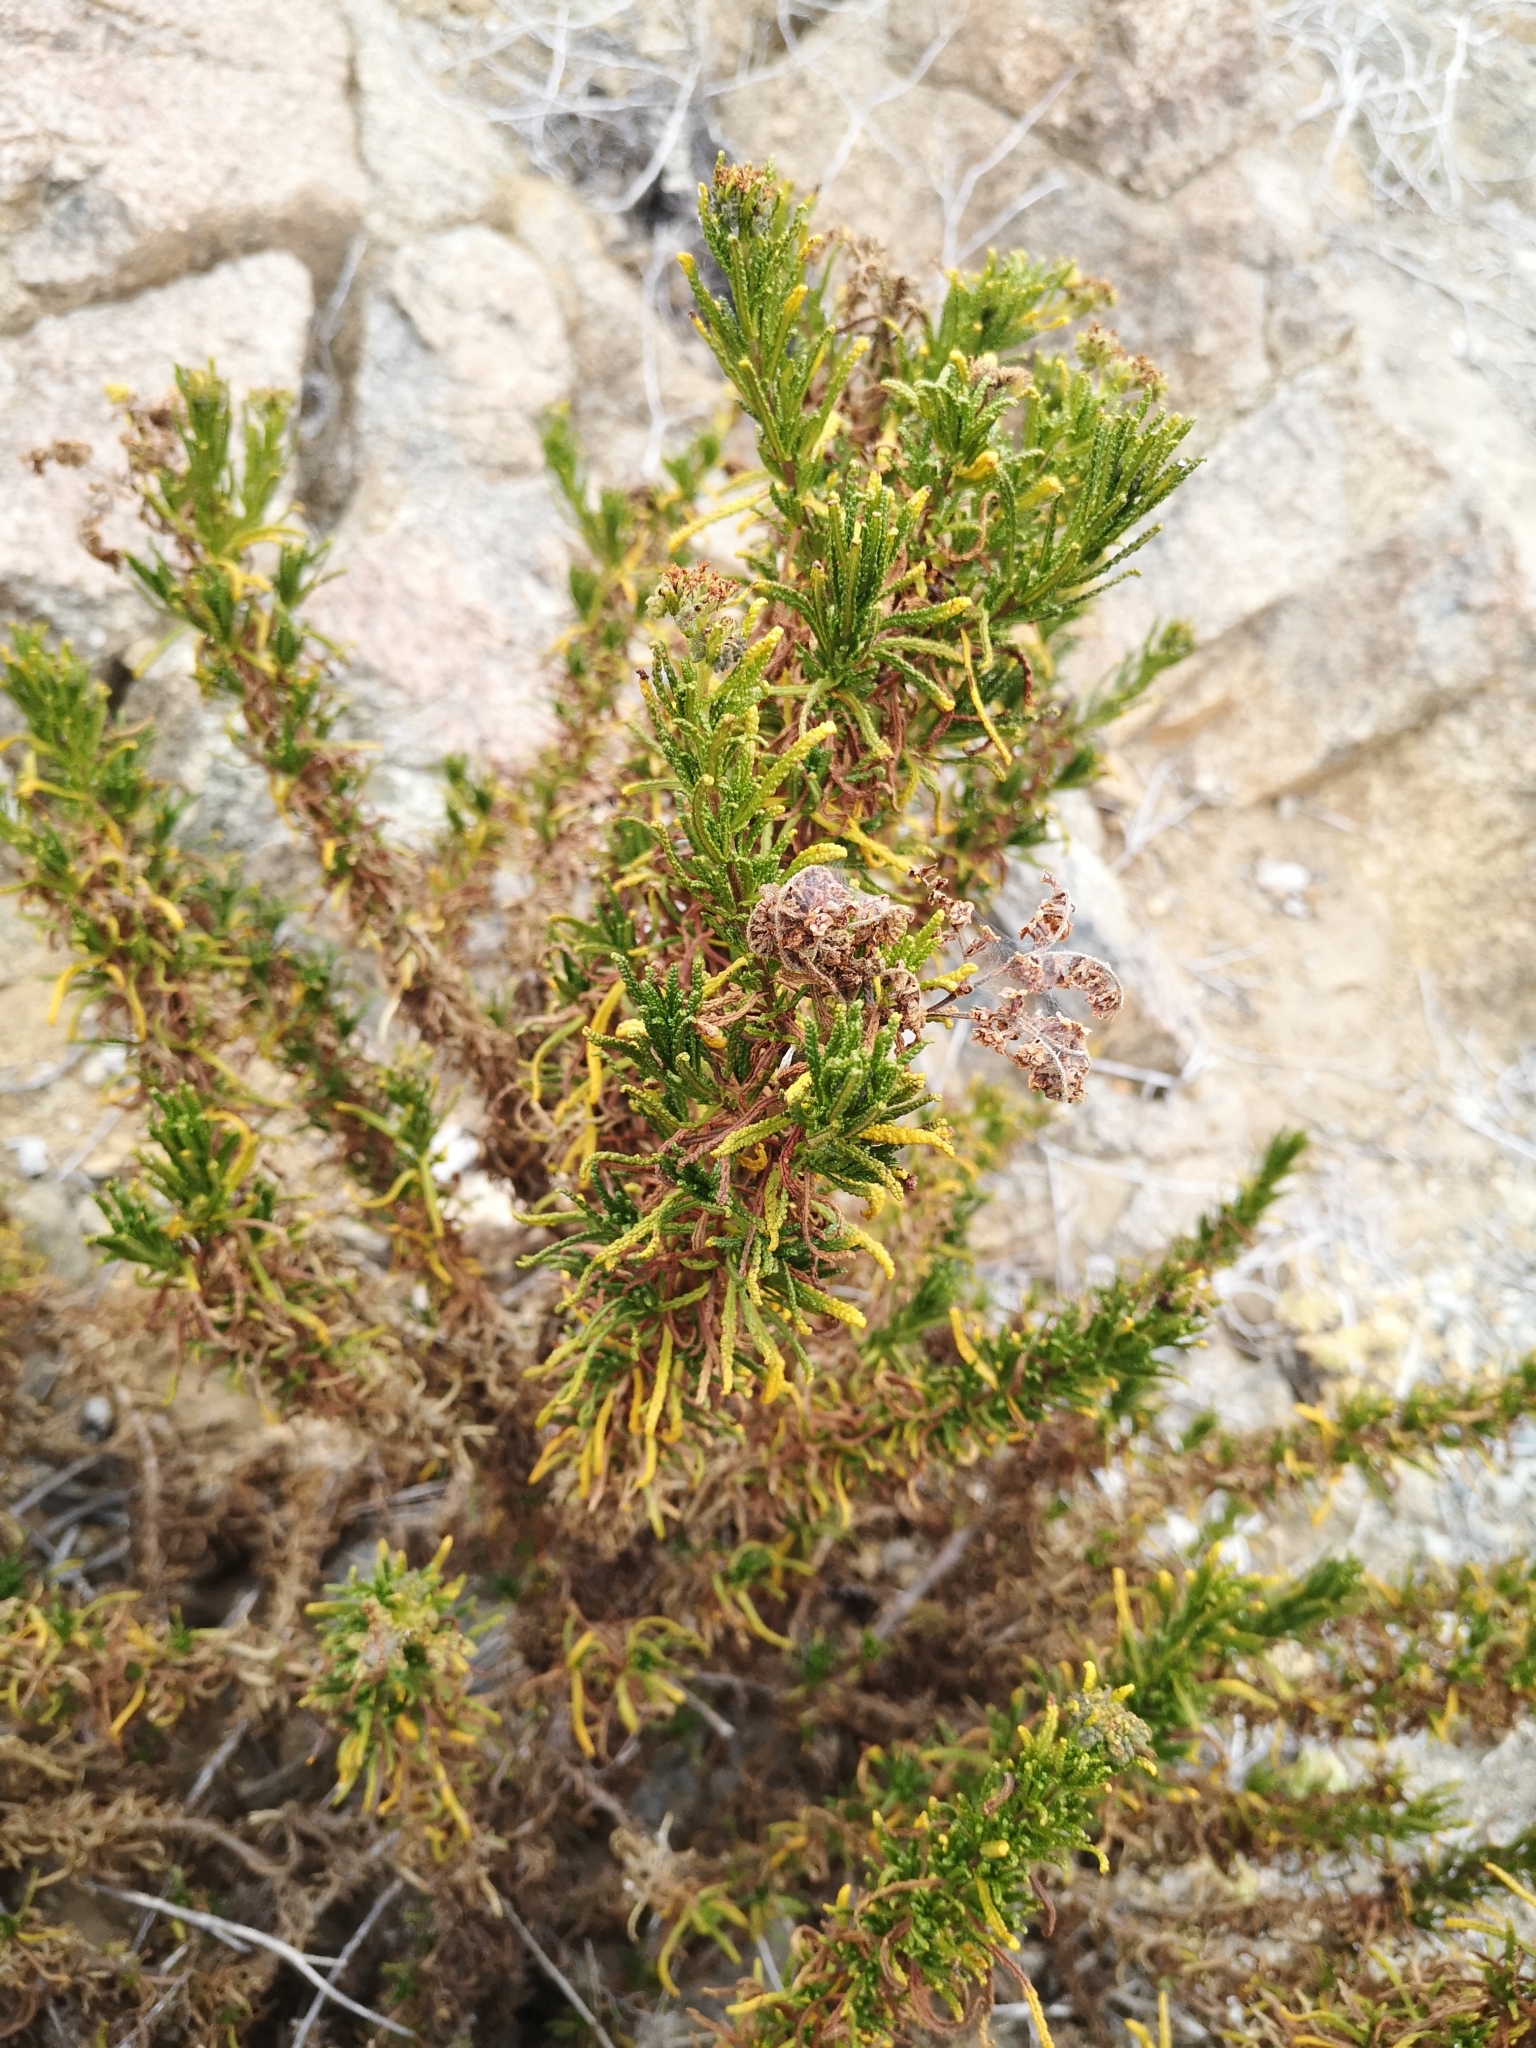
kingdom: Plantae
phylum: Tracheophyta
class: Magnoliopsida
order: Boraginales
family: Heliotropiaceae
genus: Heliotropium
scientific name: Heliotropium taltalense
